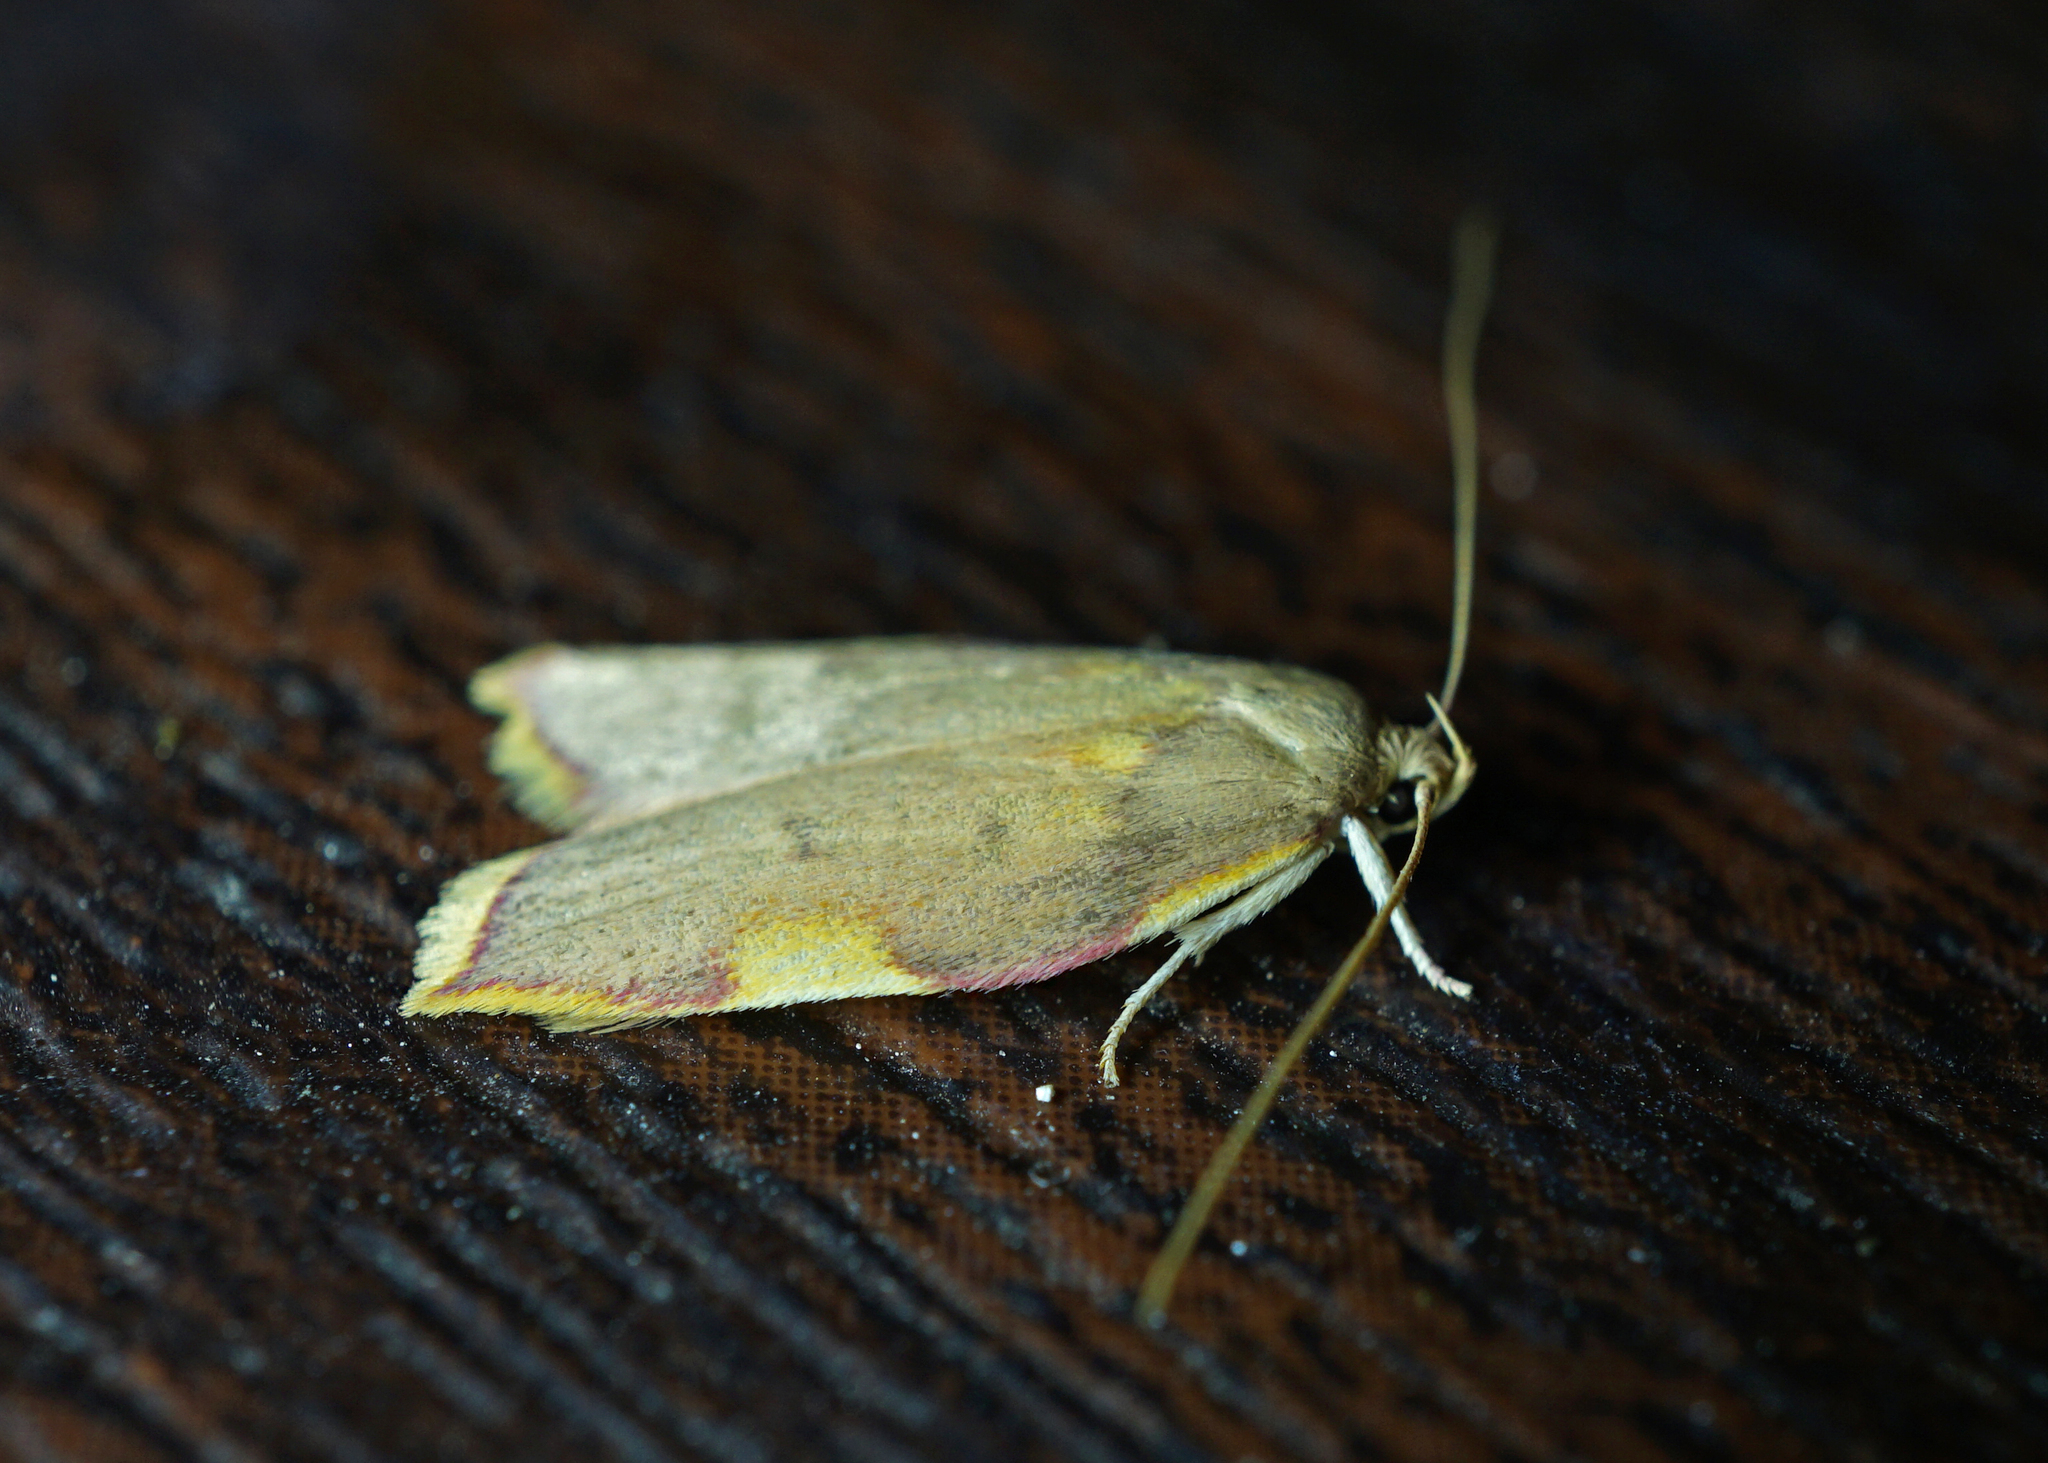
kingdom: Animalia
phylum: Arthropoda
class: Insecta
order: Lepidoptera
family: Peleopodidae
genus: Carcina
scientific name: Carcina quercana
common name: Moth
